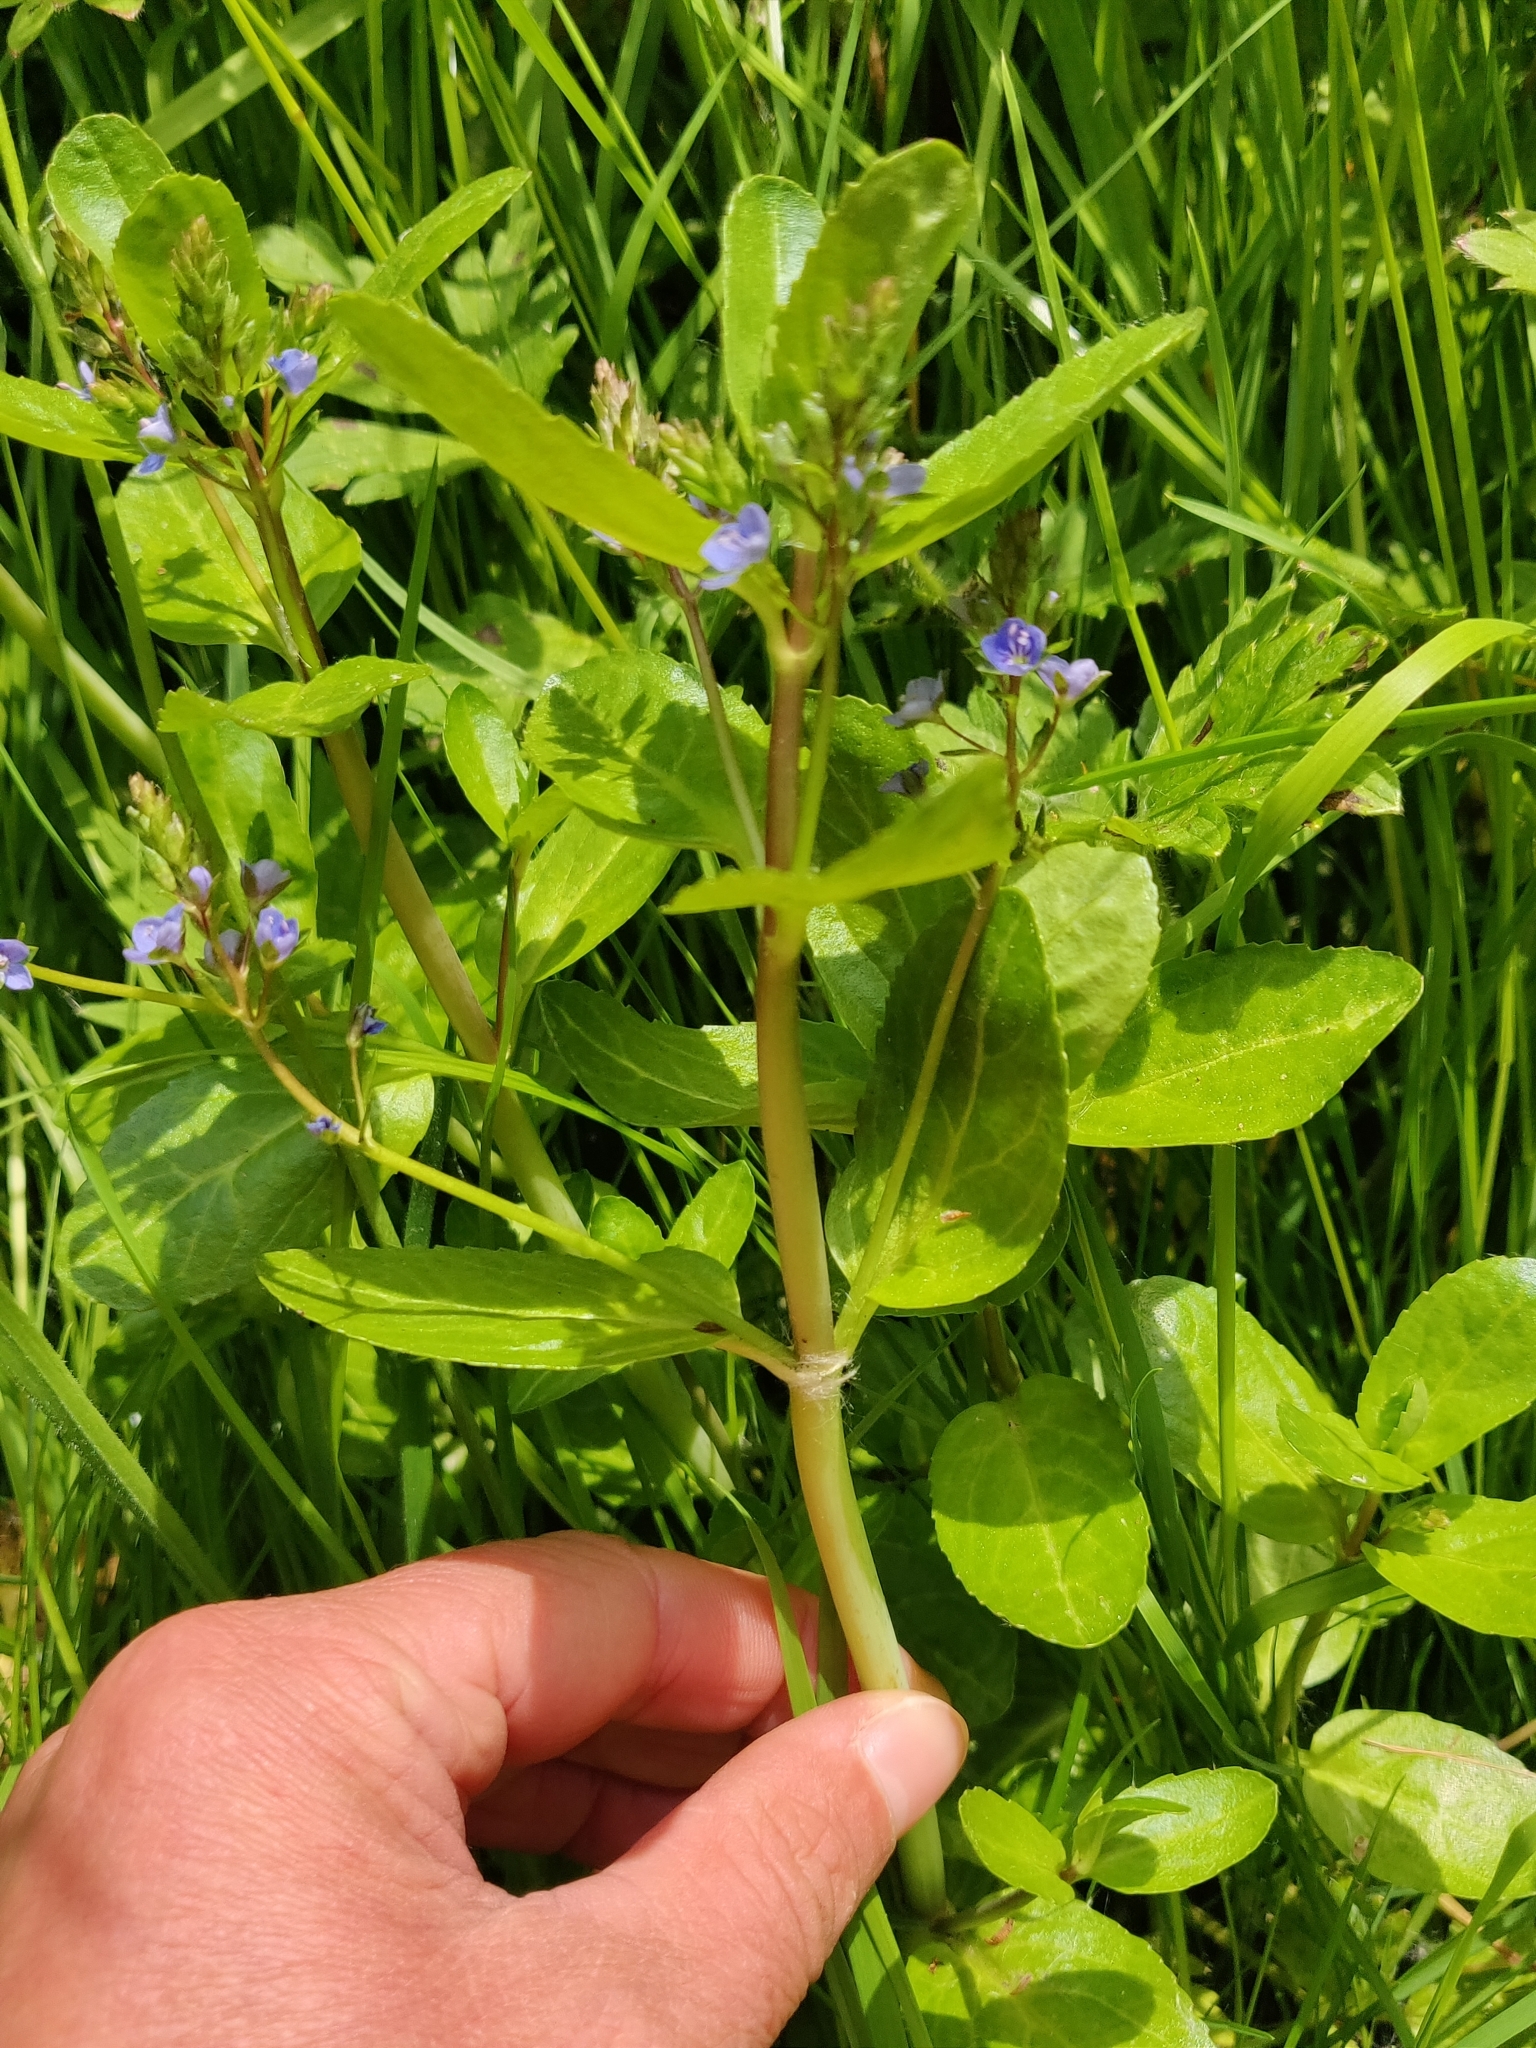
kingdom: Plantae
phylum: Tracheophyta
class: Magnoliopsida
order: Lamiales
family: Plantaginaceae
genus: Veronica
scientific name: Veronica beccabunga
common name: Brooklime
